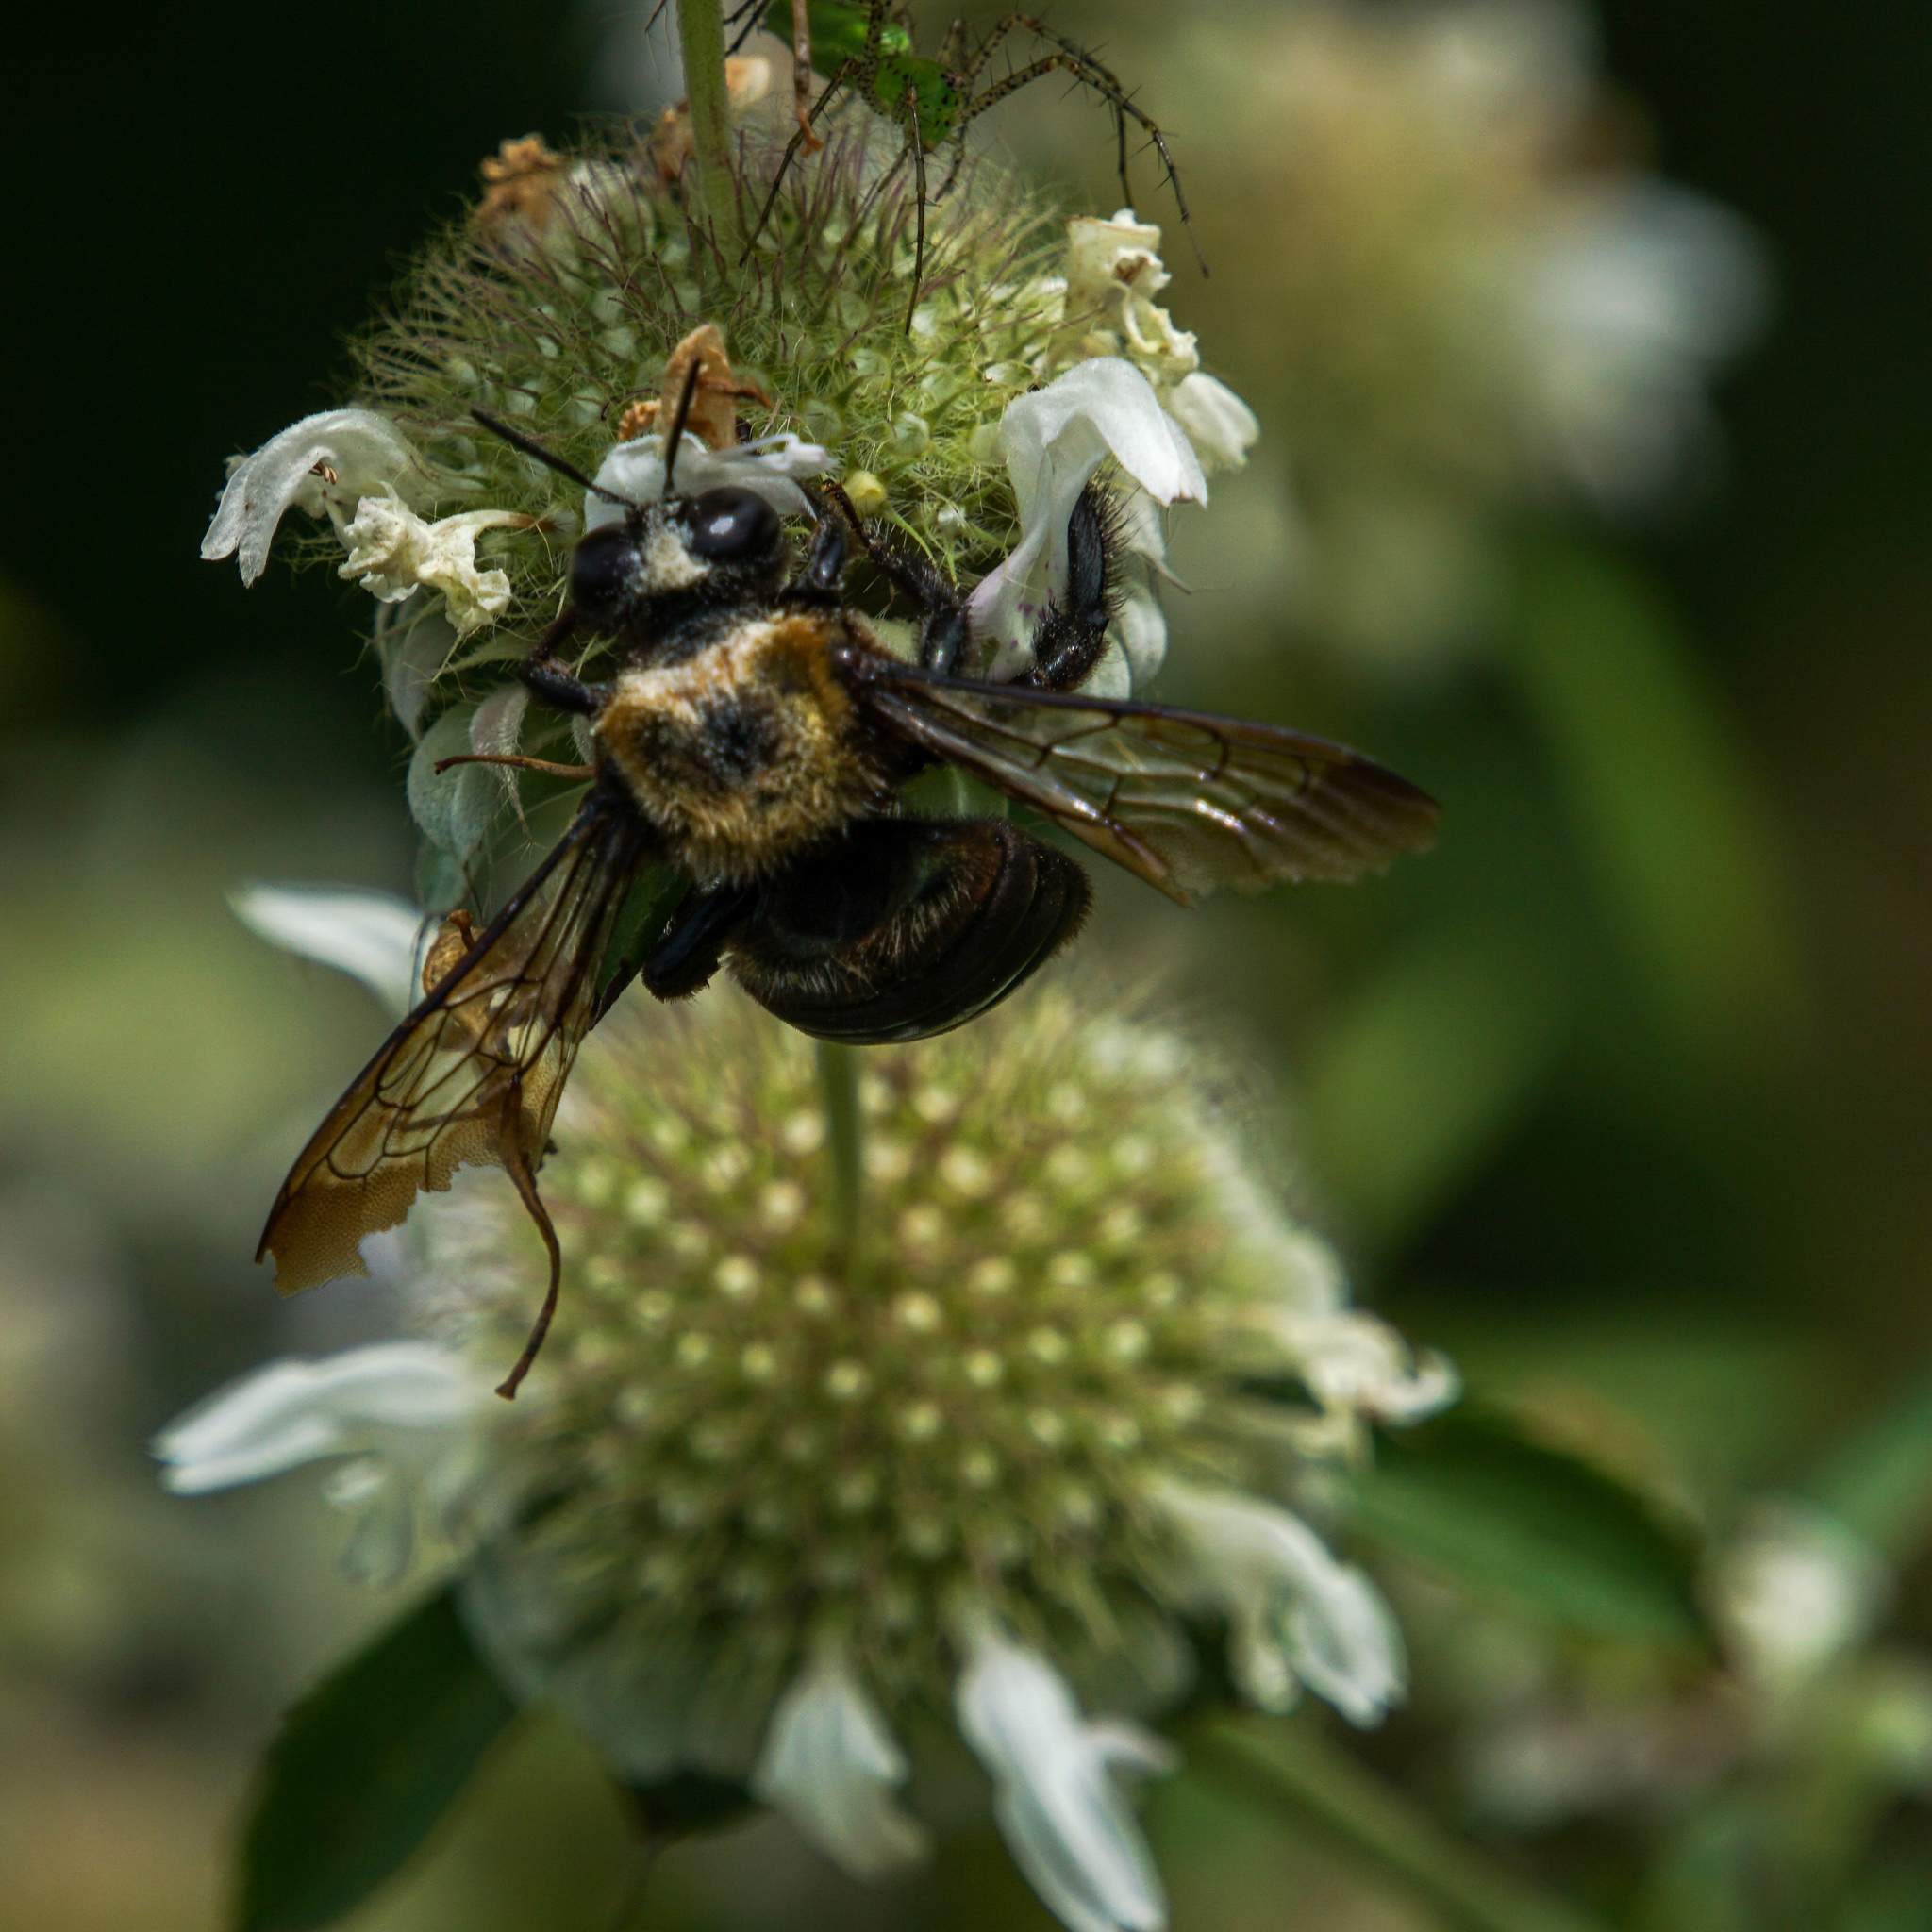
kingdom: Animalia
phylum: Arthropoda
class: Insecta
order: Hymenoptera
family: Apidae
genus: Xylocopa
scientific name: Xylocopa virginica
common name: Carpenter bee
